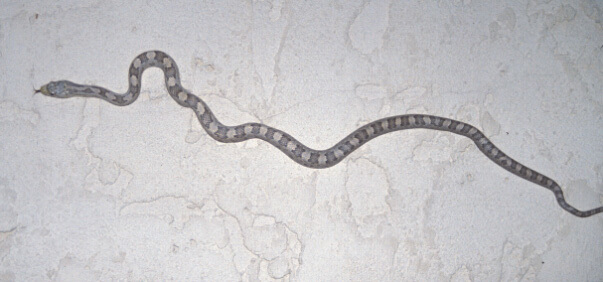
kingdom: Animalia
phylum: Chordata
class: Squamata
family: Colubridae
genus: Pantherophis
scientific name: Pantherophis alleghaniensis
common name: Eastern rat snake
